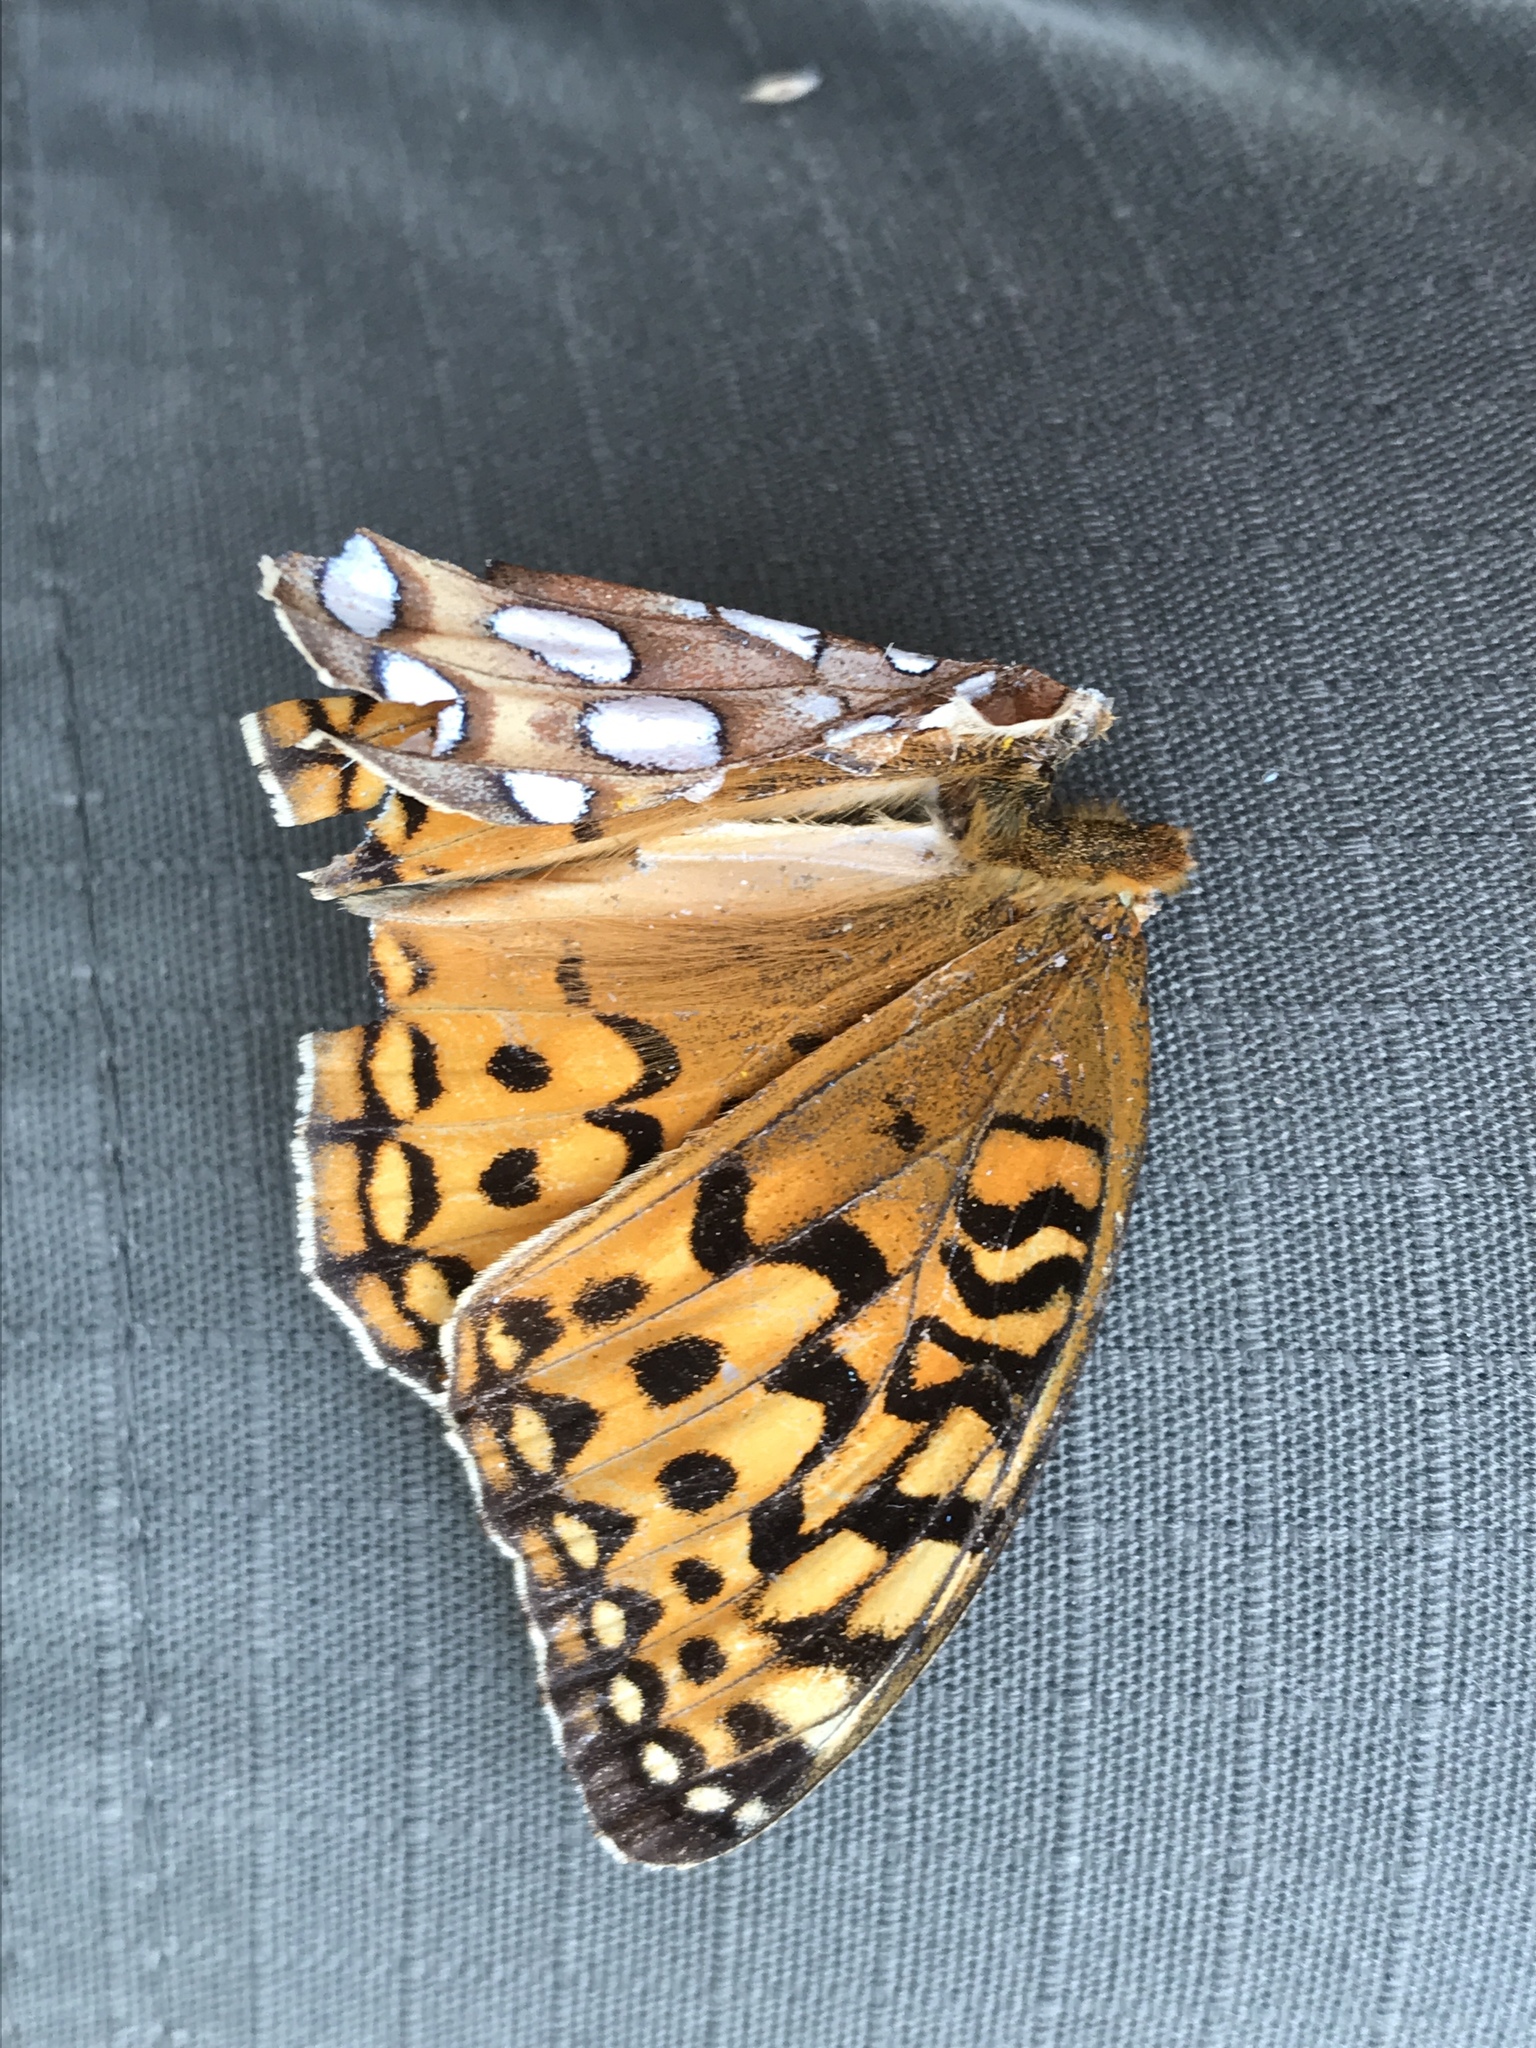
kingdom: Animalia
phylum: Arthropoda
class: Insecta
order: Lepidoptera
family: Nymphalidae
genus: Argynnis
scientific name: Argynnis coronis
